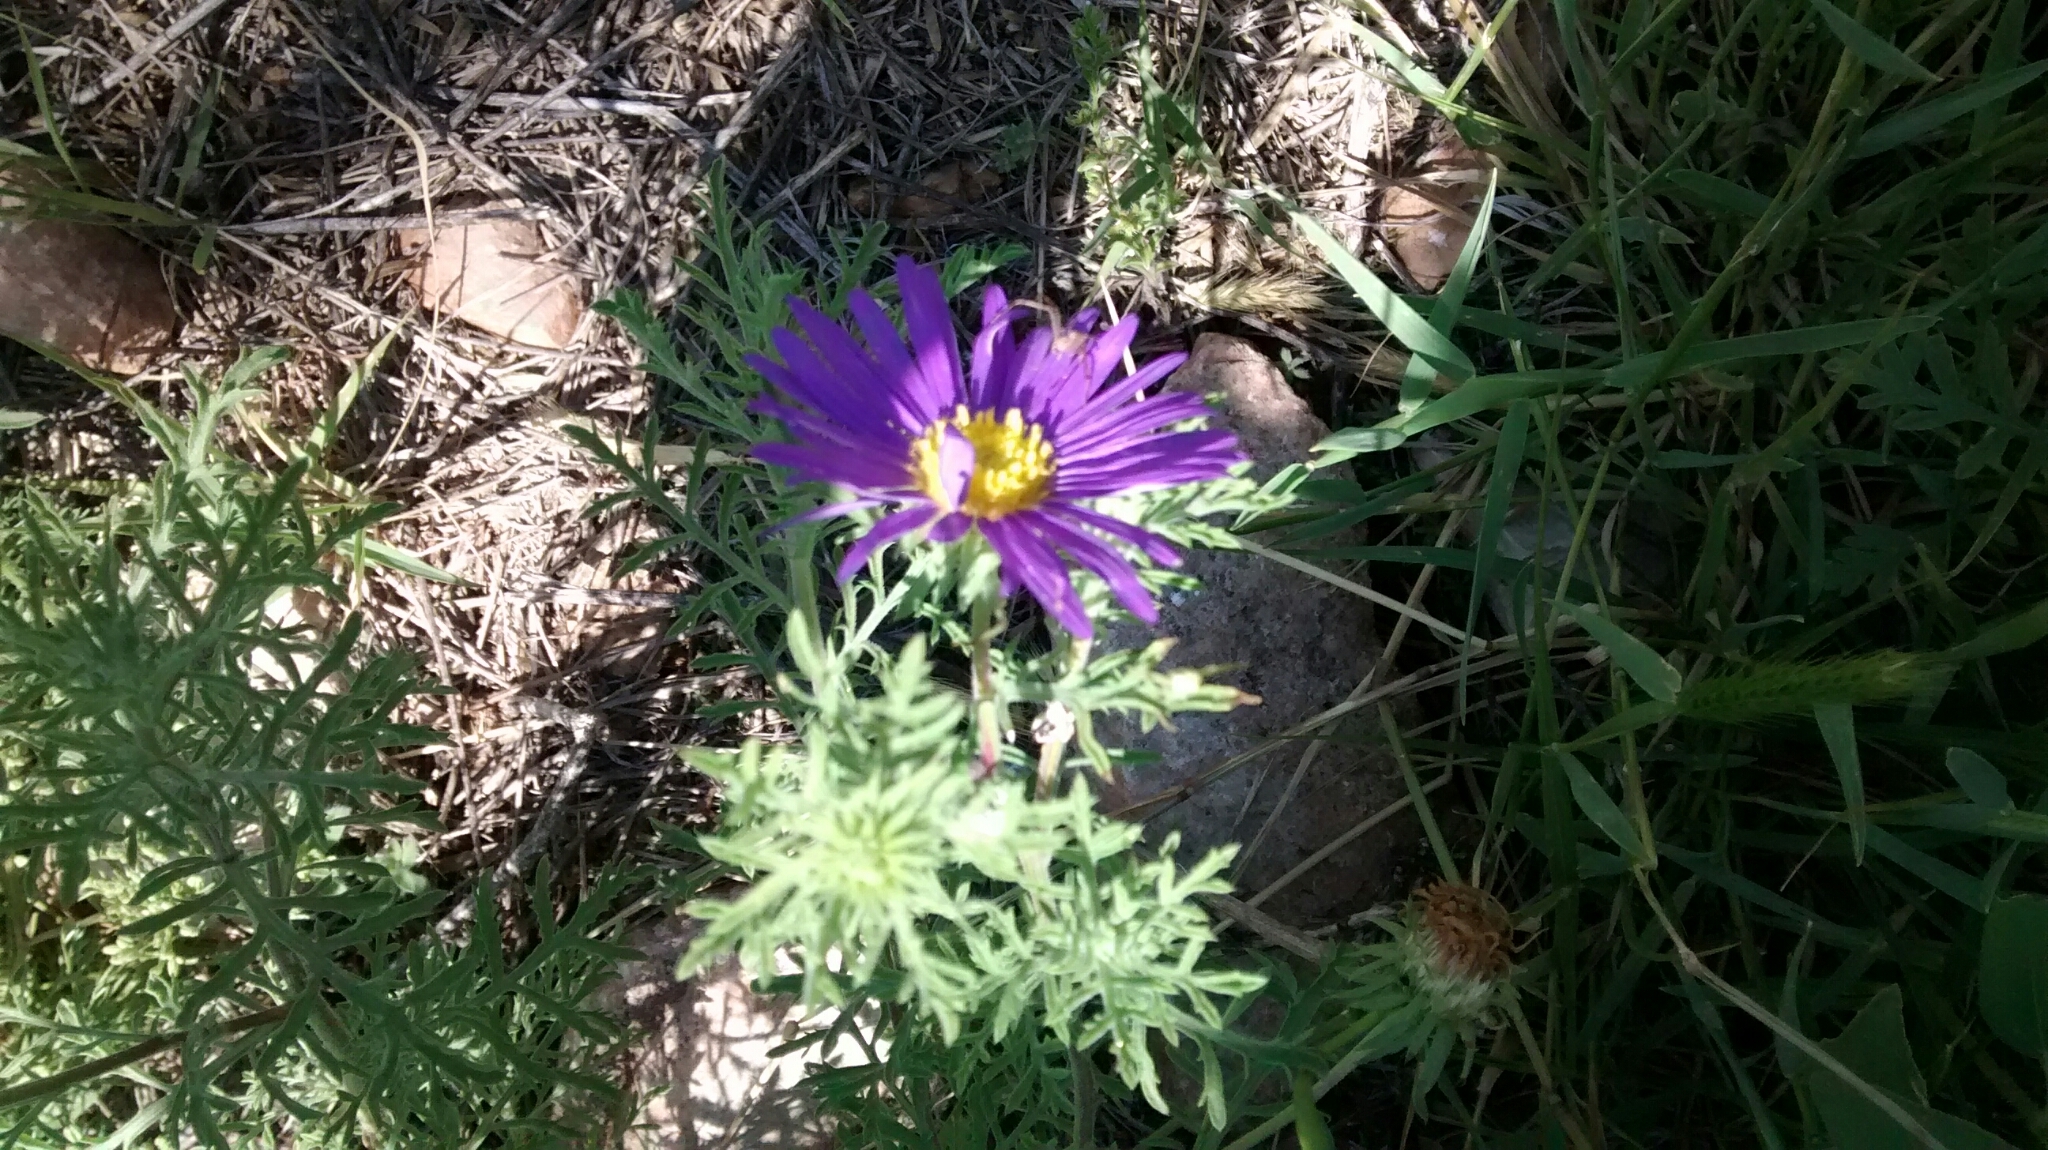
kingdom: Plantae
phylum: Tracheophyta
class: Magnoliopsida
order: Asterales
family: Asteraceae
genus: Machaeranthera
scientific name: Machaeranthera tanacetifolia
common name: Tansy-aster
